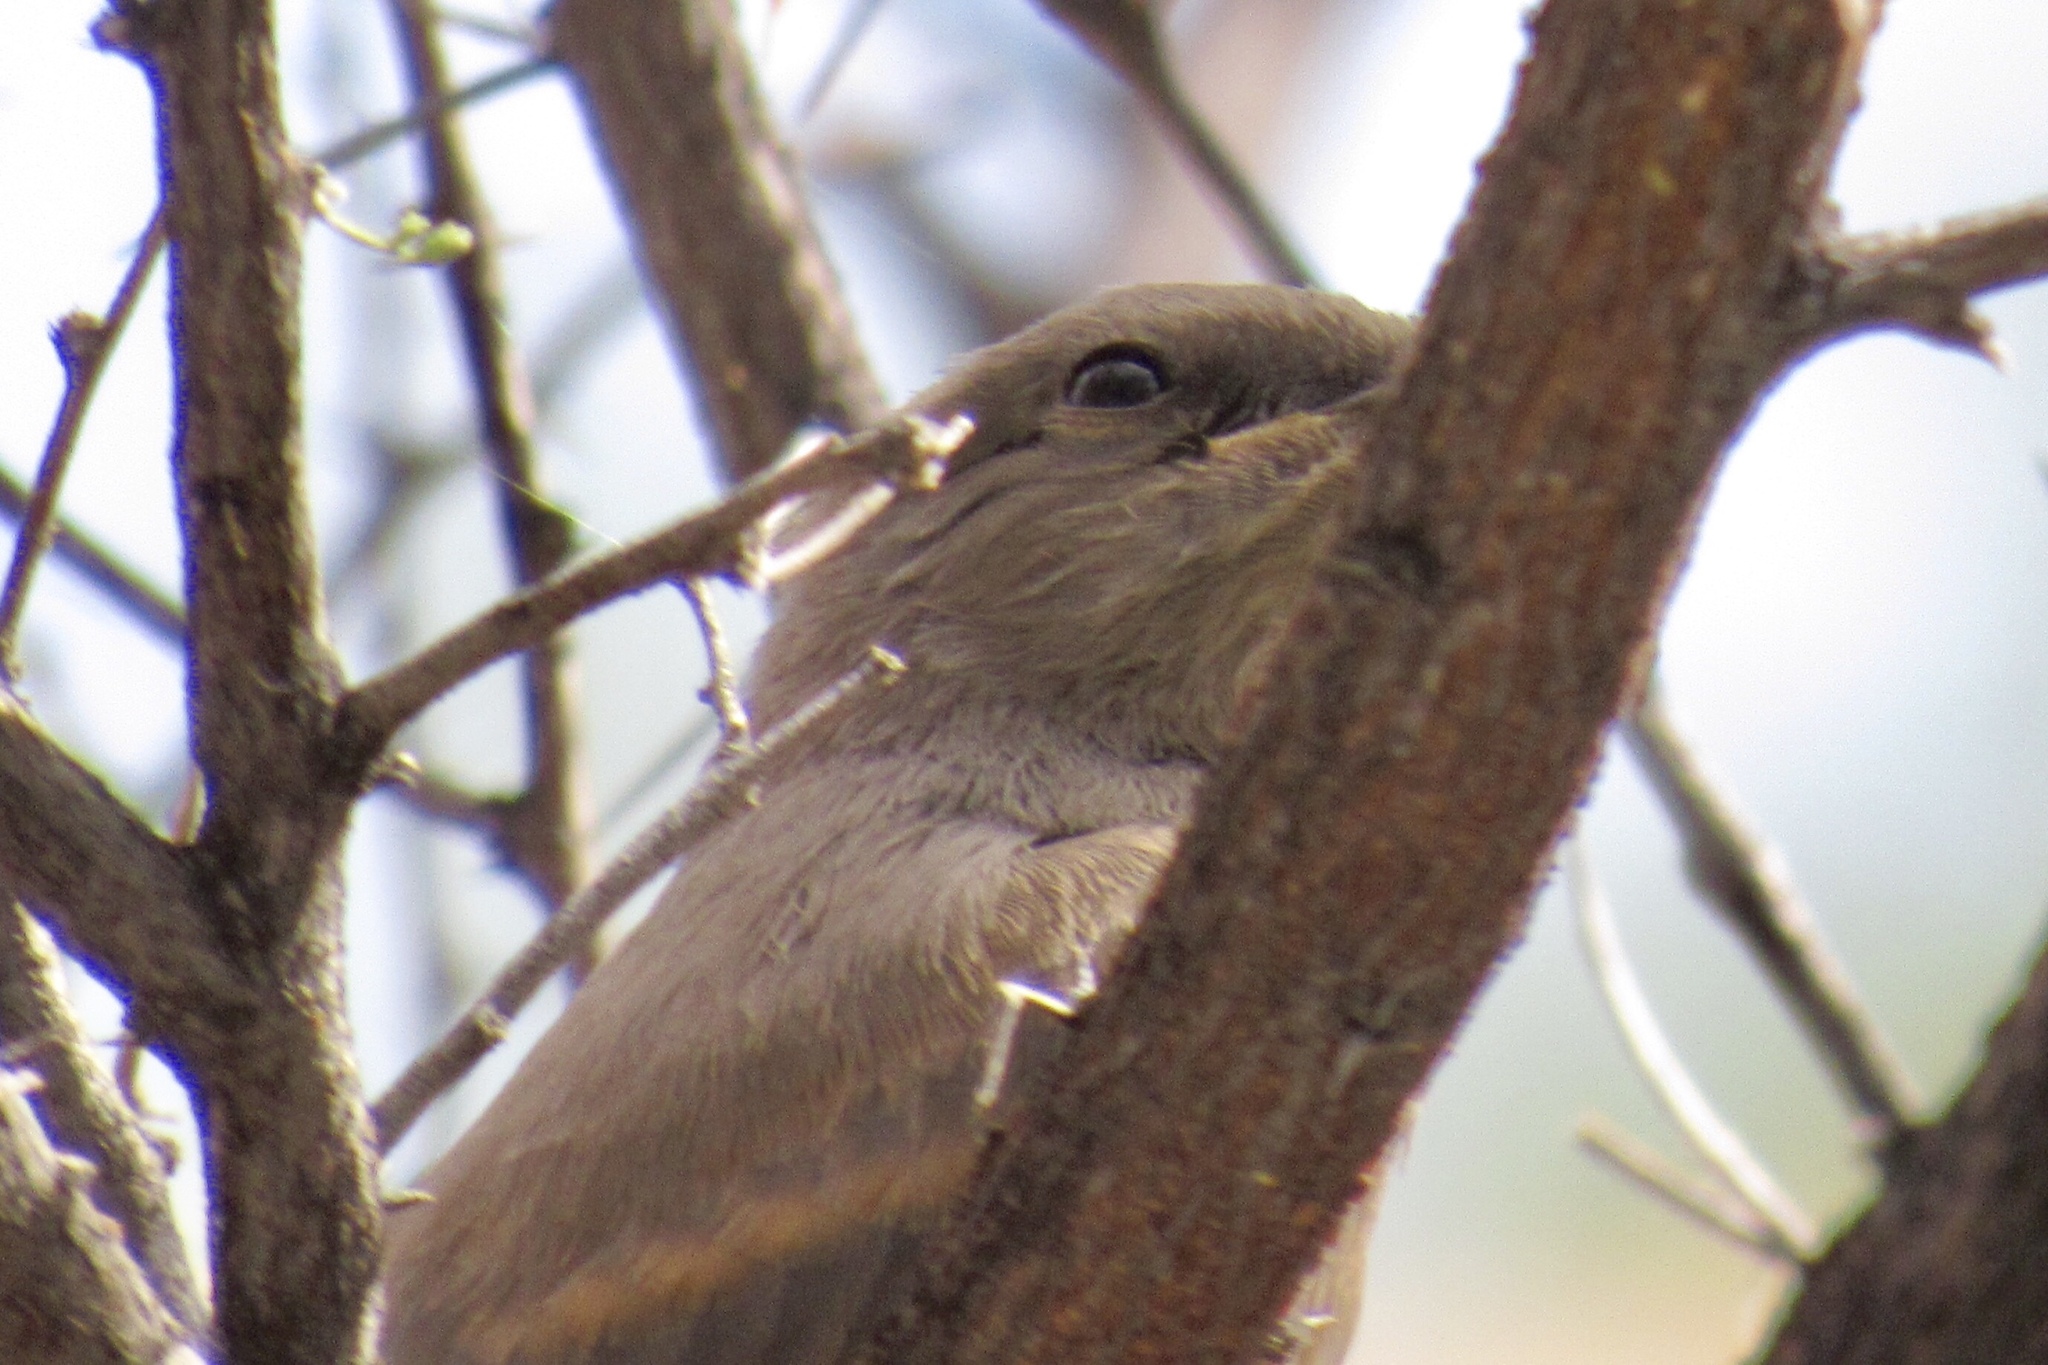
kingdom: Animalia
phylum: Chordata
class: Aves
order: Passeriformes
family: Tyrannidae
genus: Sayornis
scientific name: Sayornis saya
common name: Say's phoebe
